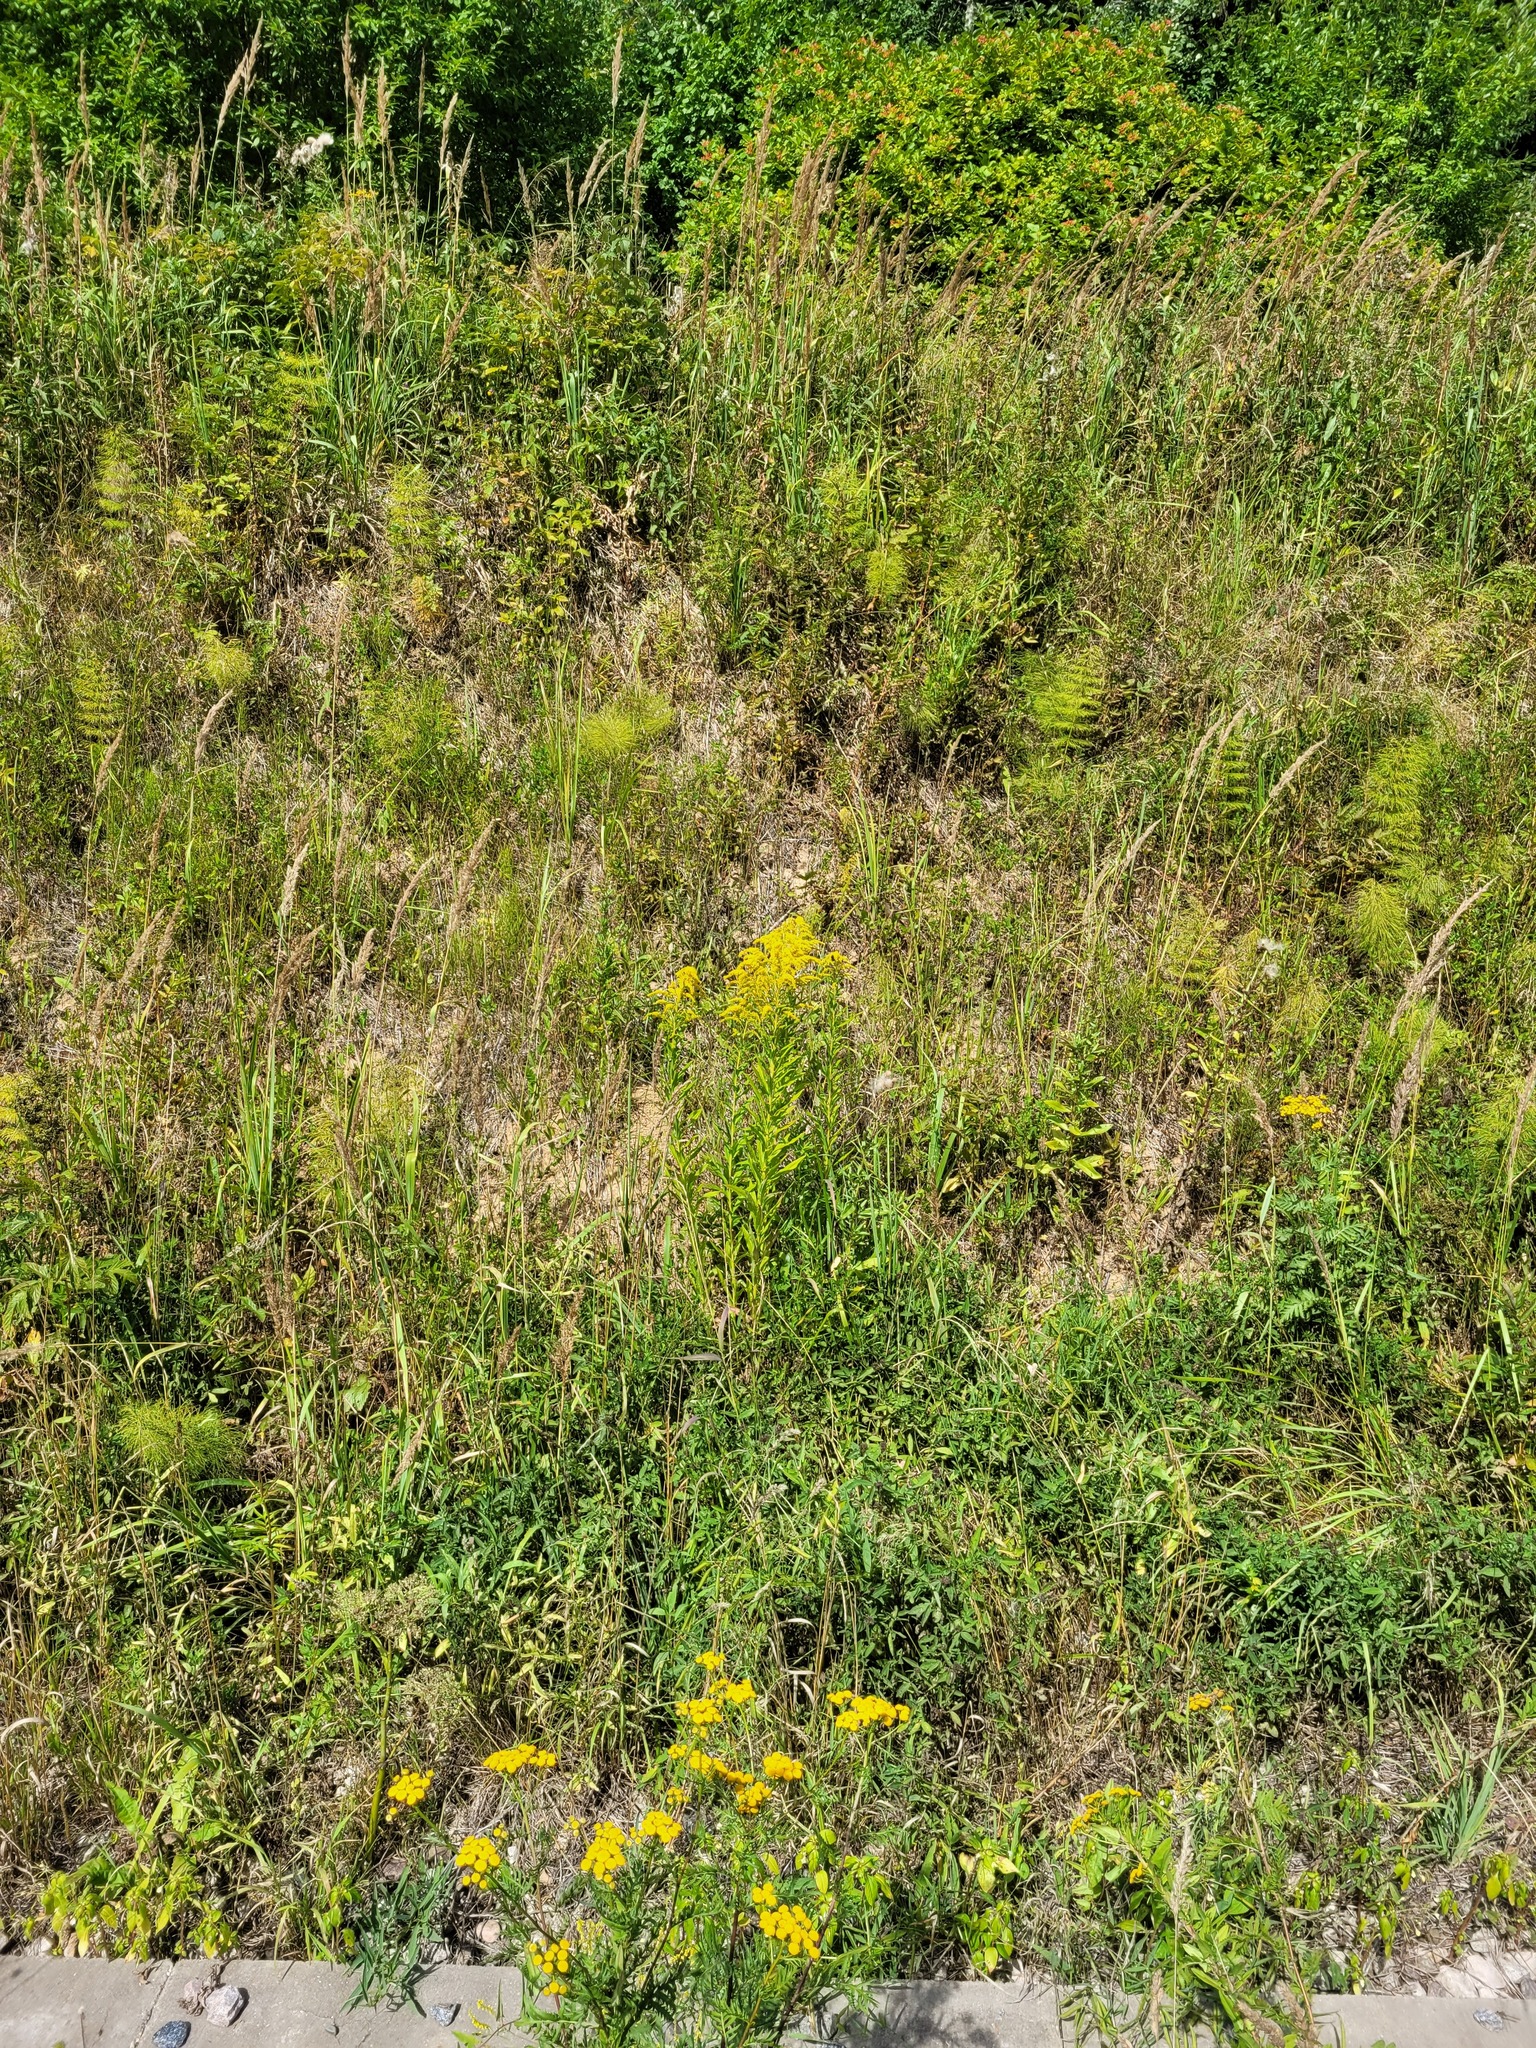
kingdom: Plantae
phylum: Tracheophyta
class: Magnoliopsida
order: Asterales
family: Asteraceae
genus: Solidago
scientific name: Solidago canadensis
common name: Canada goldenrod
